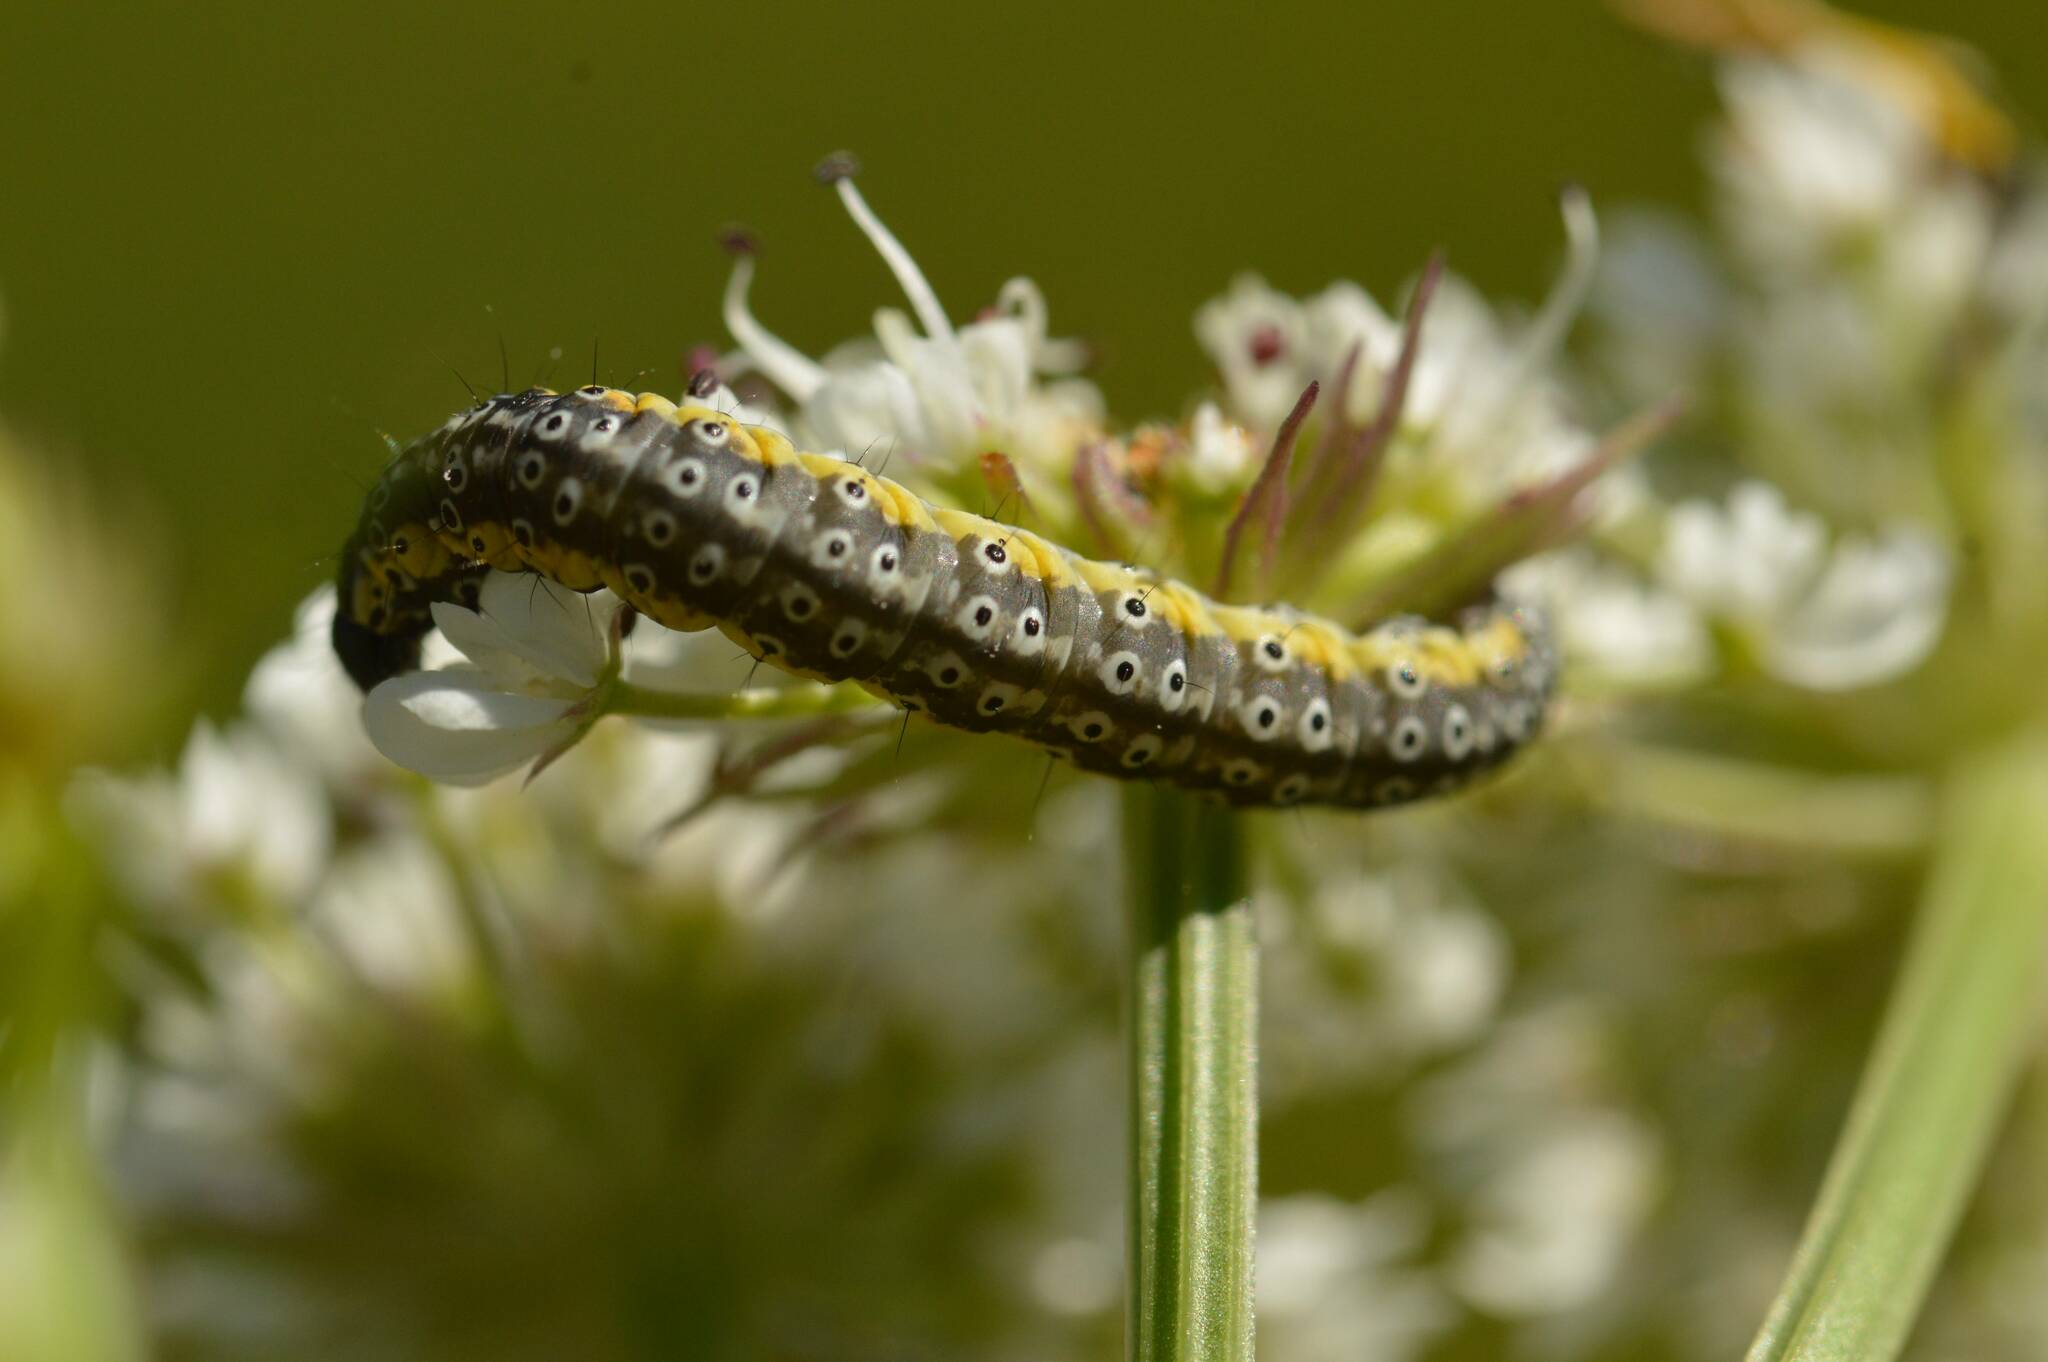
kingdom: Animalia
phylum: Arthropoda
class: Insecta
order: Lepidoptera
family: Depressariidae
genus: Depressaria
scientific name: Depressaria apiella
